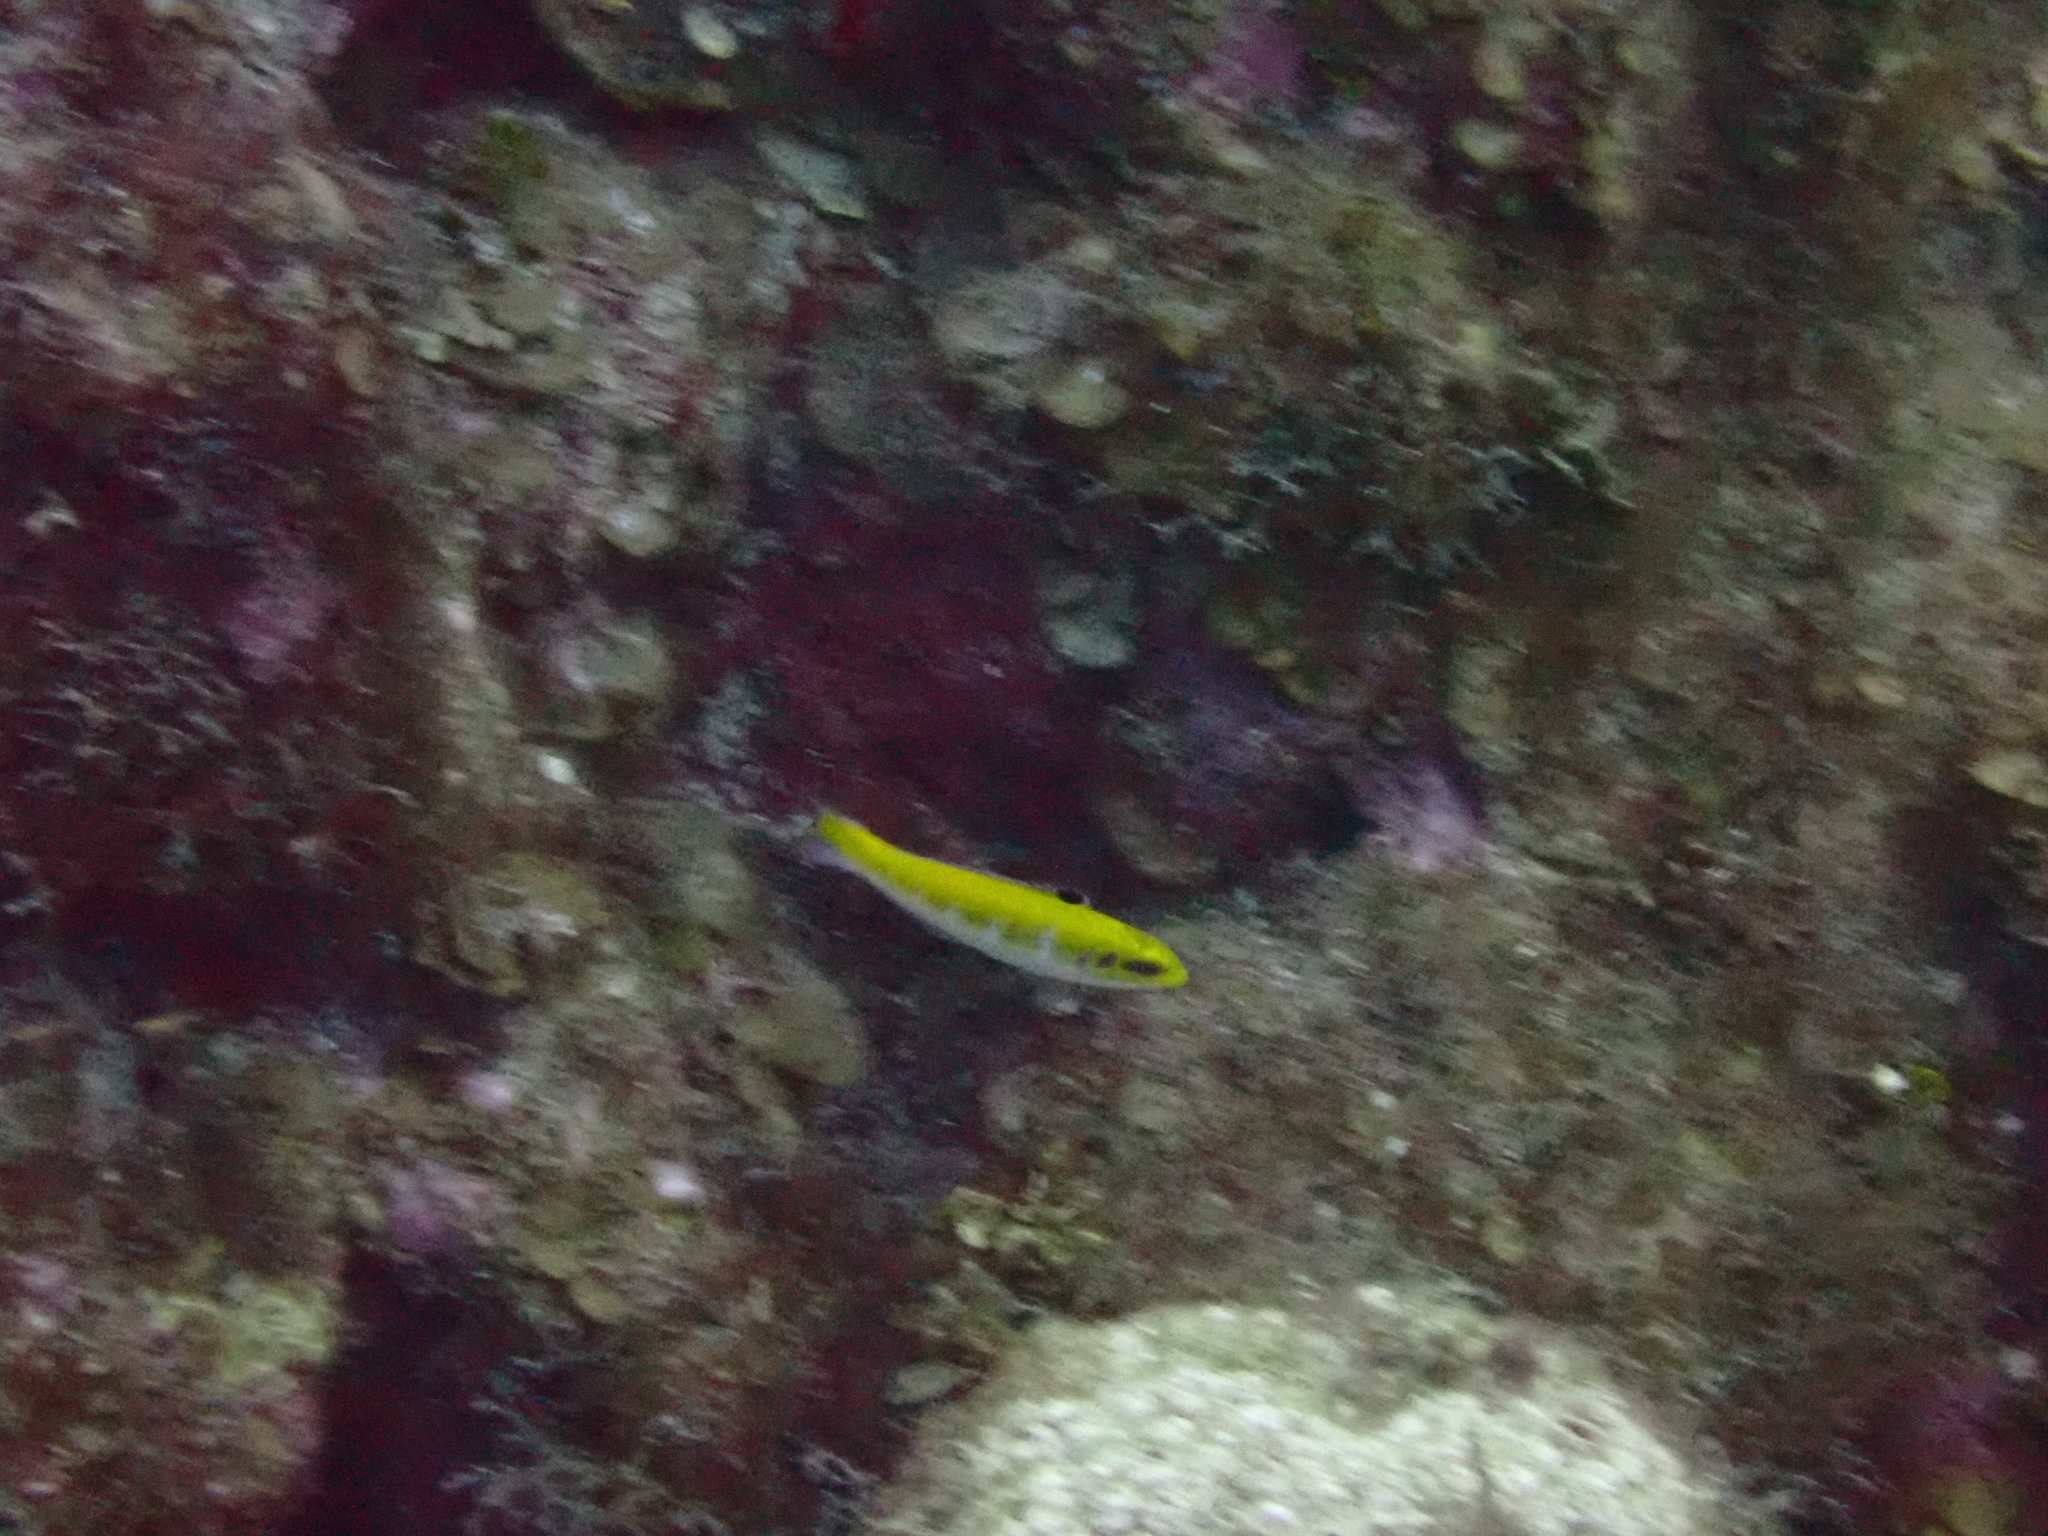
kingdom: Animalia
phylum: Chordata
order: Perciformes
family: Labridae
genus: Thalassoma
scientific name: Thalassoma bifasciatum
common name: Bluehead wrasse
